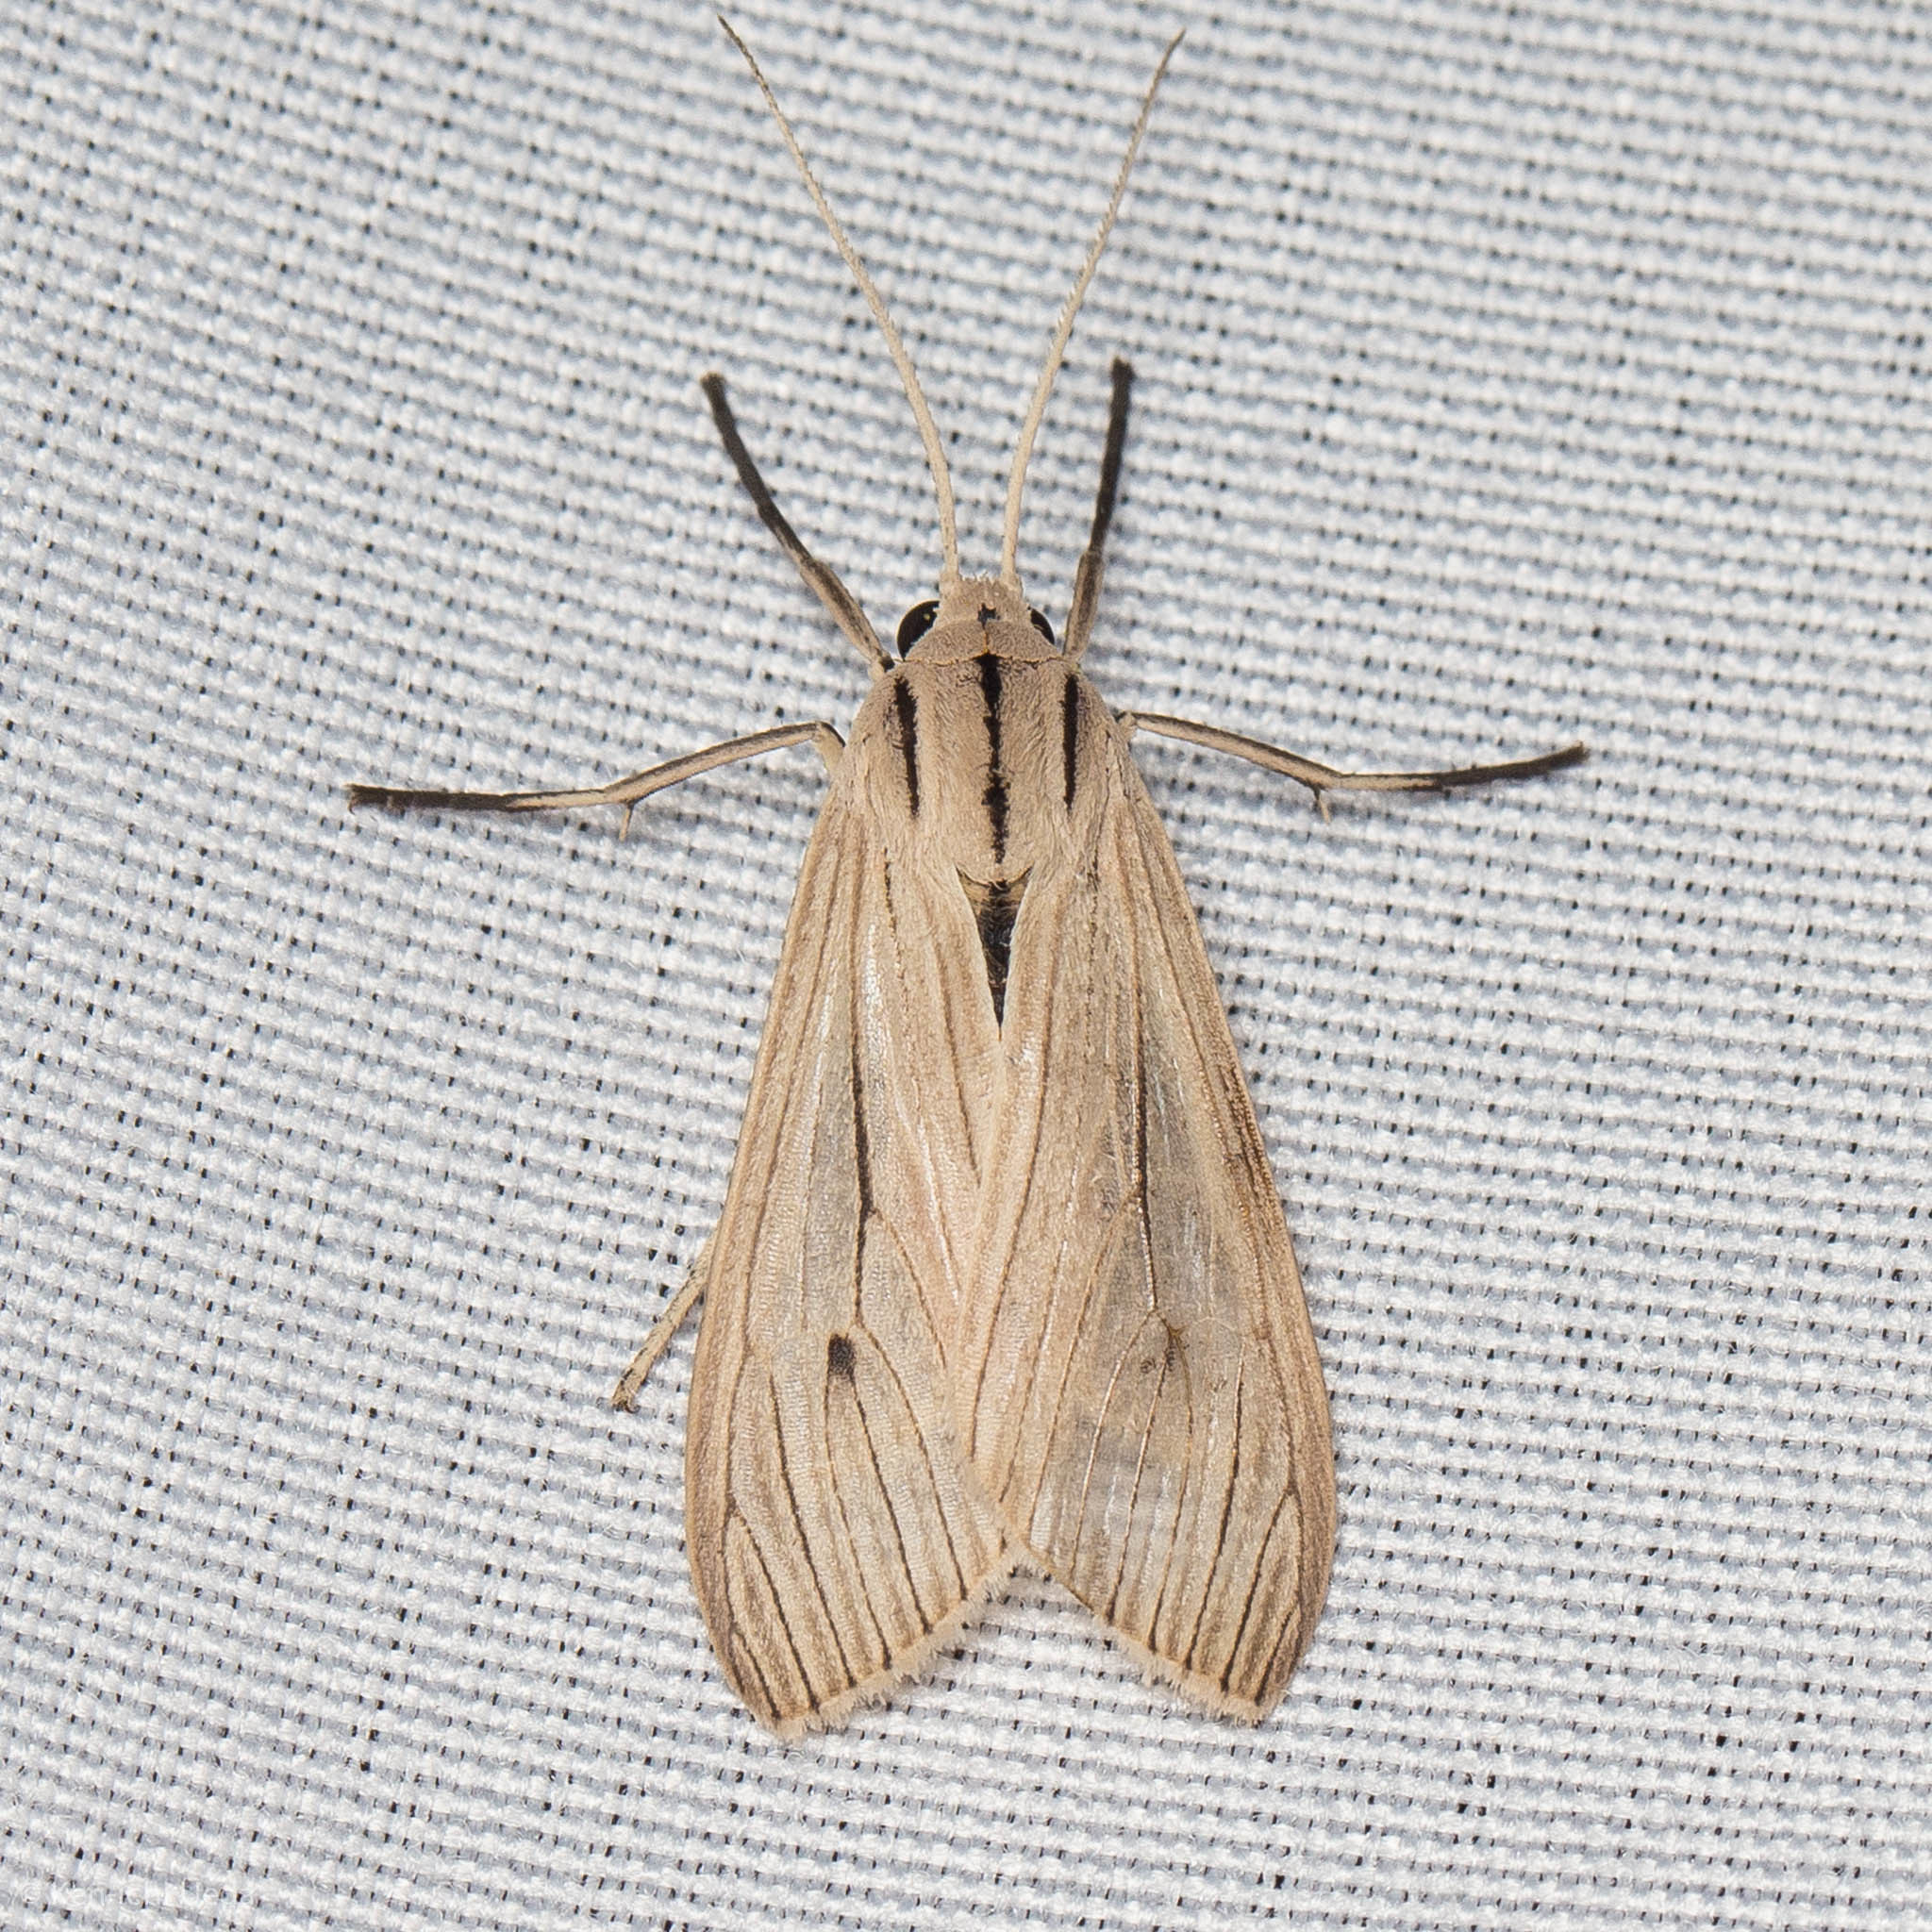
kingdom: Animalia
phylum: Arthropoda
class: Insecta
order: Lepidoptera
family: Erebidae
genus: Arctagyrta
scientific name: Arctagyrta Agaraea semivitrea
